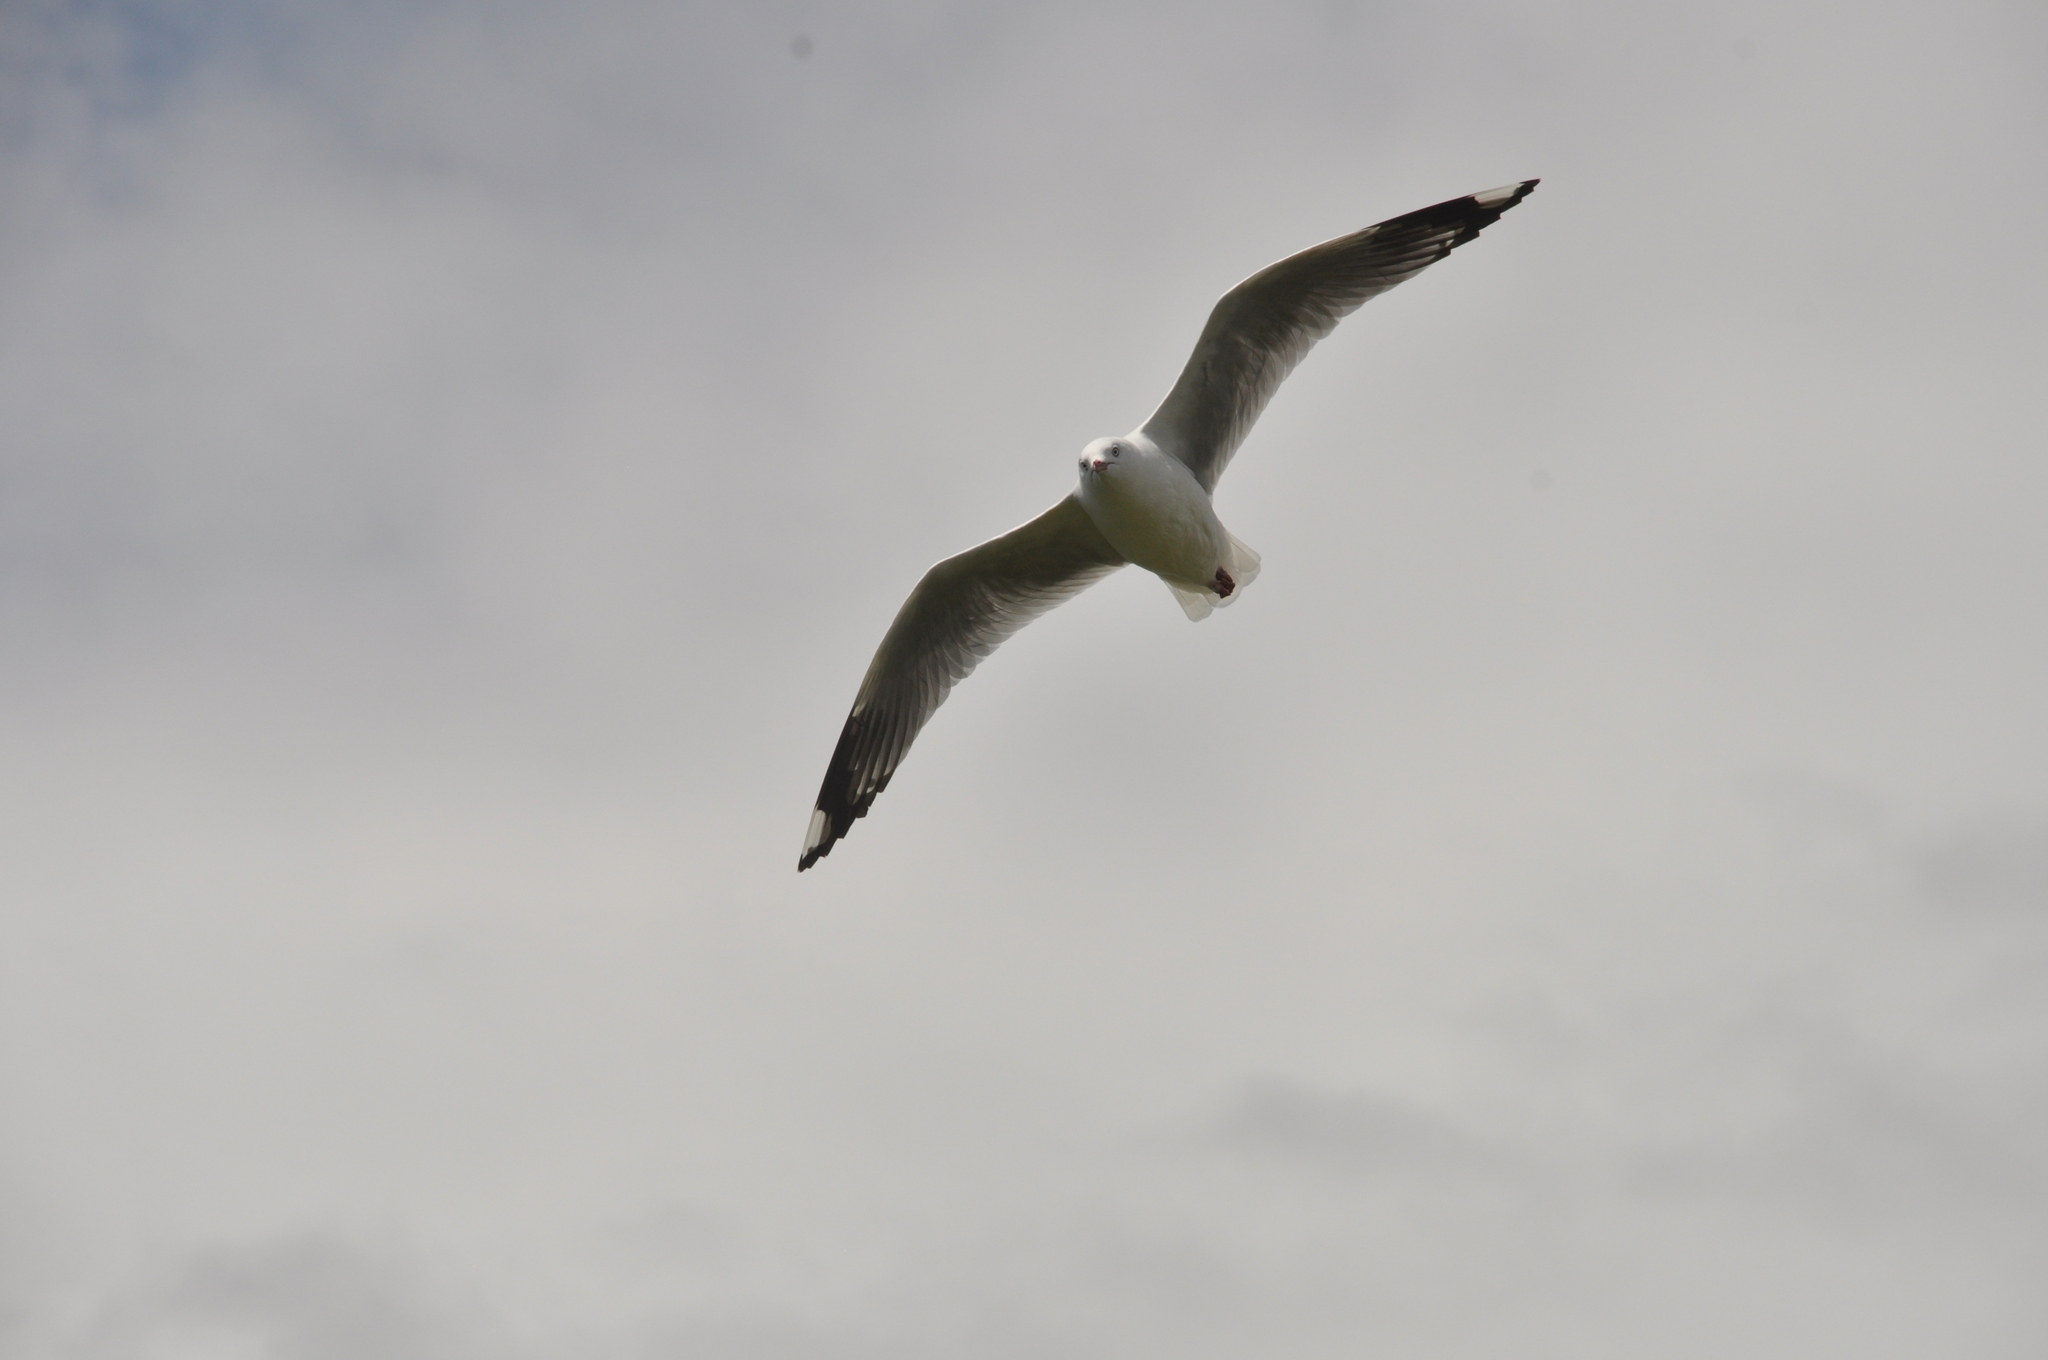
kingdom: Animalia
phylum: Chordata
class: Aves
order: Charadriiformes
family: Laridae
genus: Chroicocephalus
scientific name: Chroicocephalus novaehollandiae
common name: Silver gull
